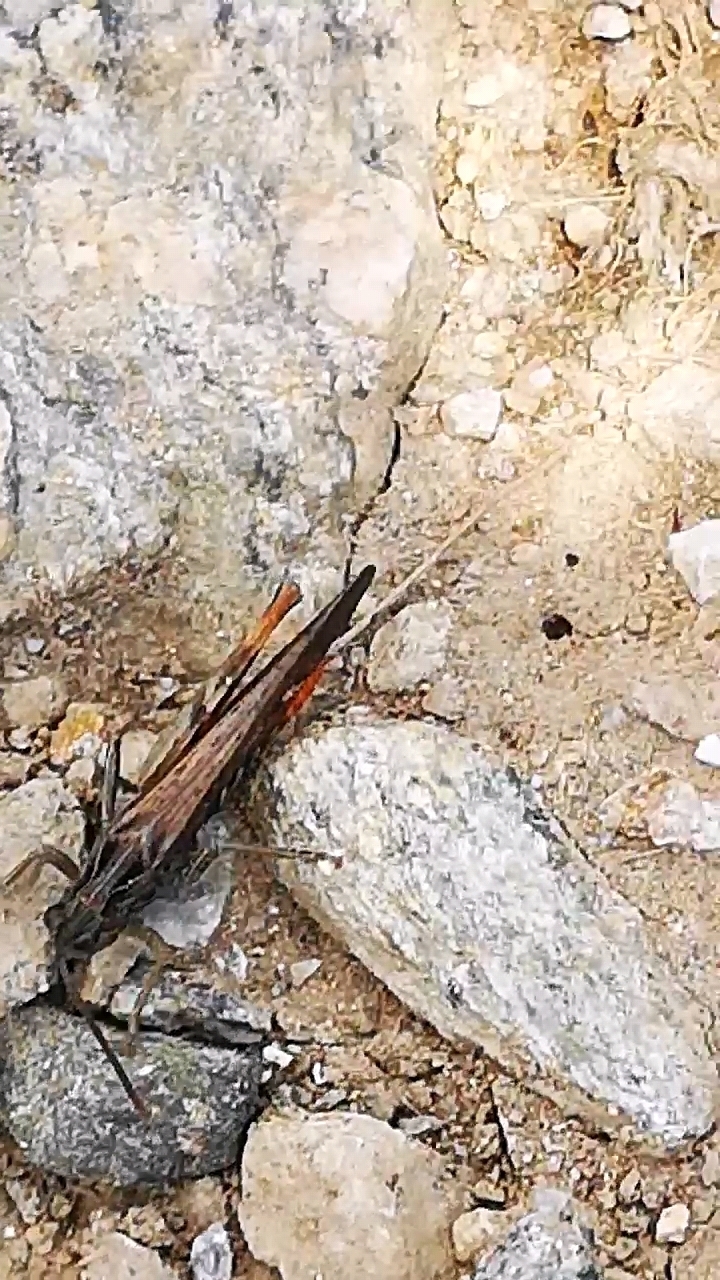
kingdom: Animalia
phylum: Arthropoda
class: Insecta
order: Orthoptera
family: Acrididae
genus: Chorthippus
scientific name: Chorthippus brunneus
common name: Field grasshopper
